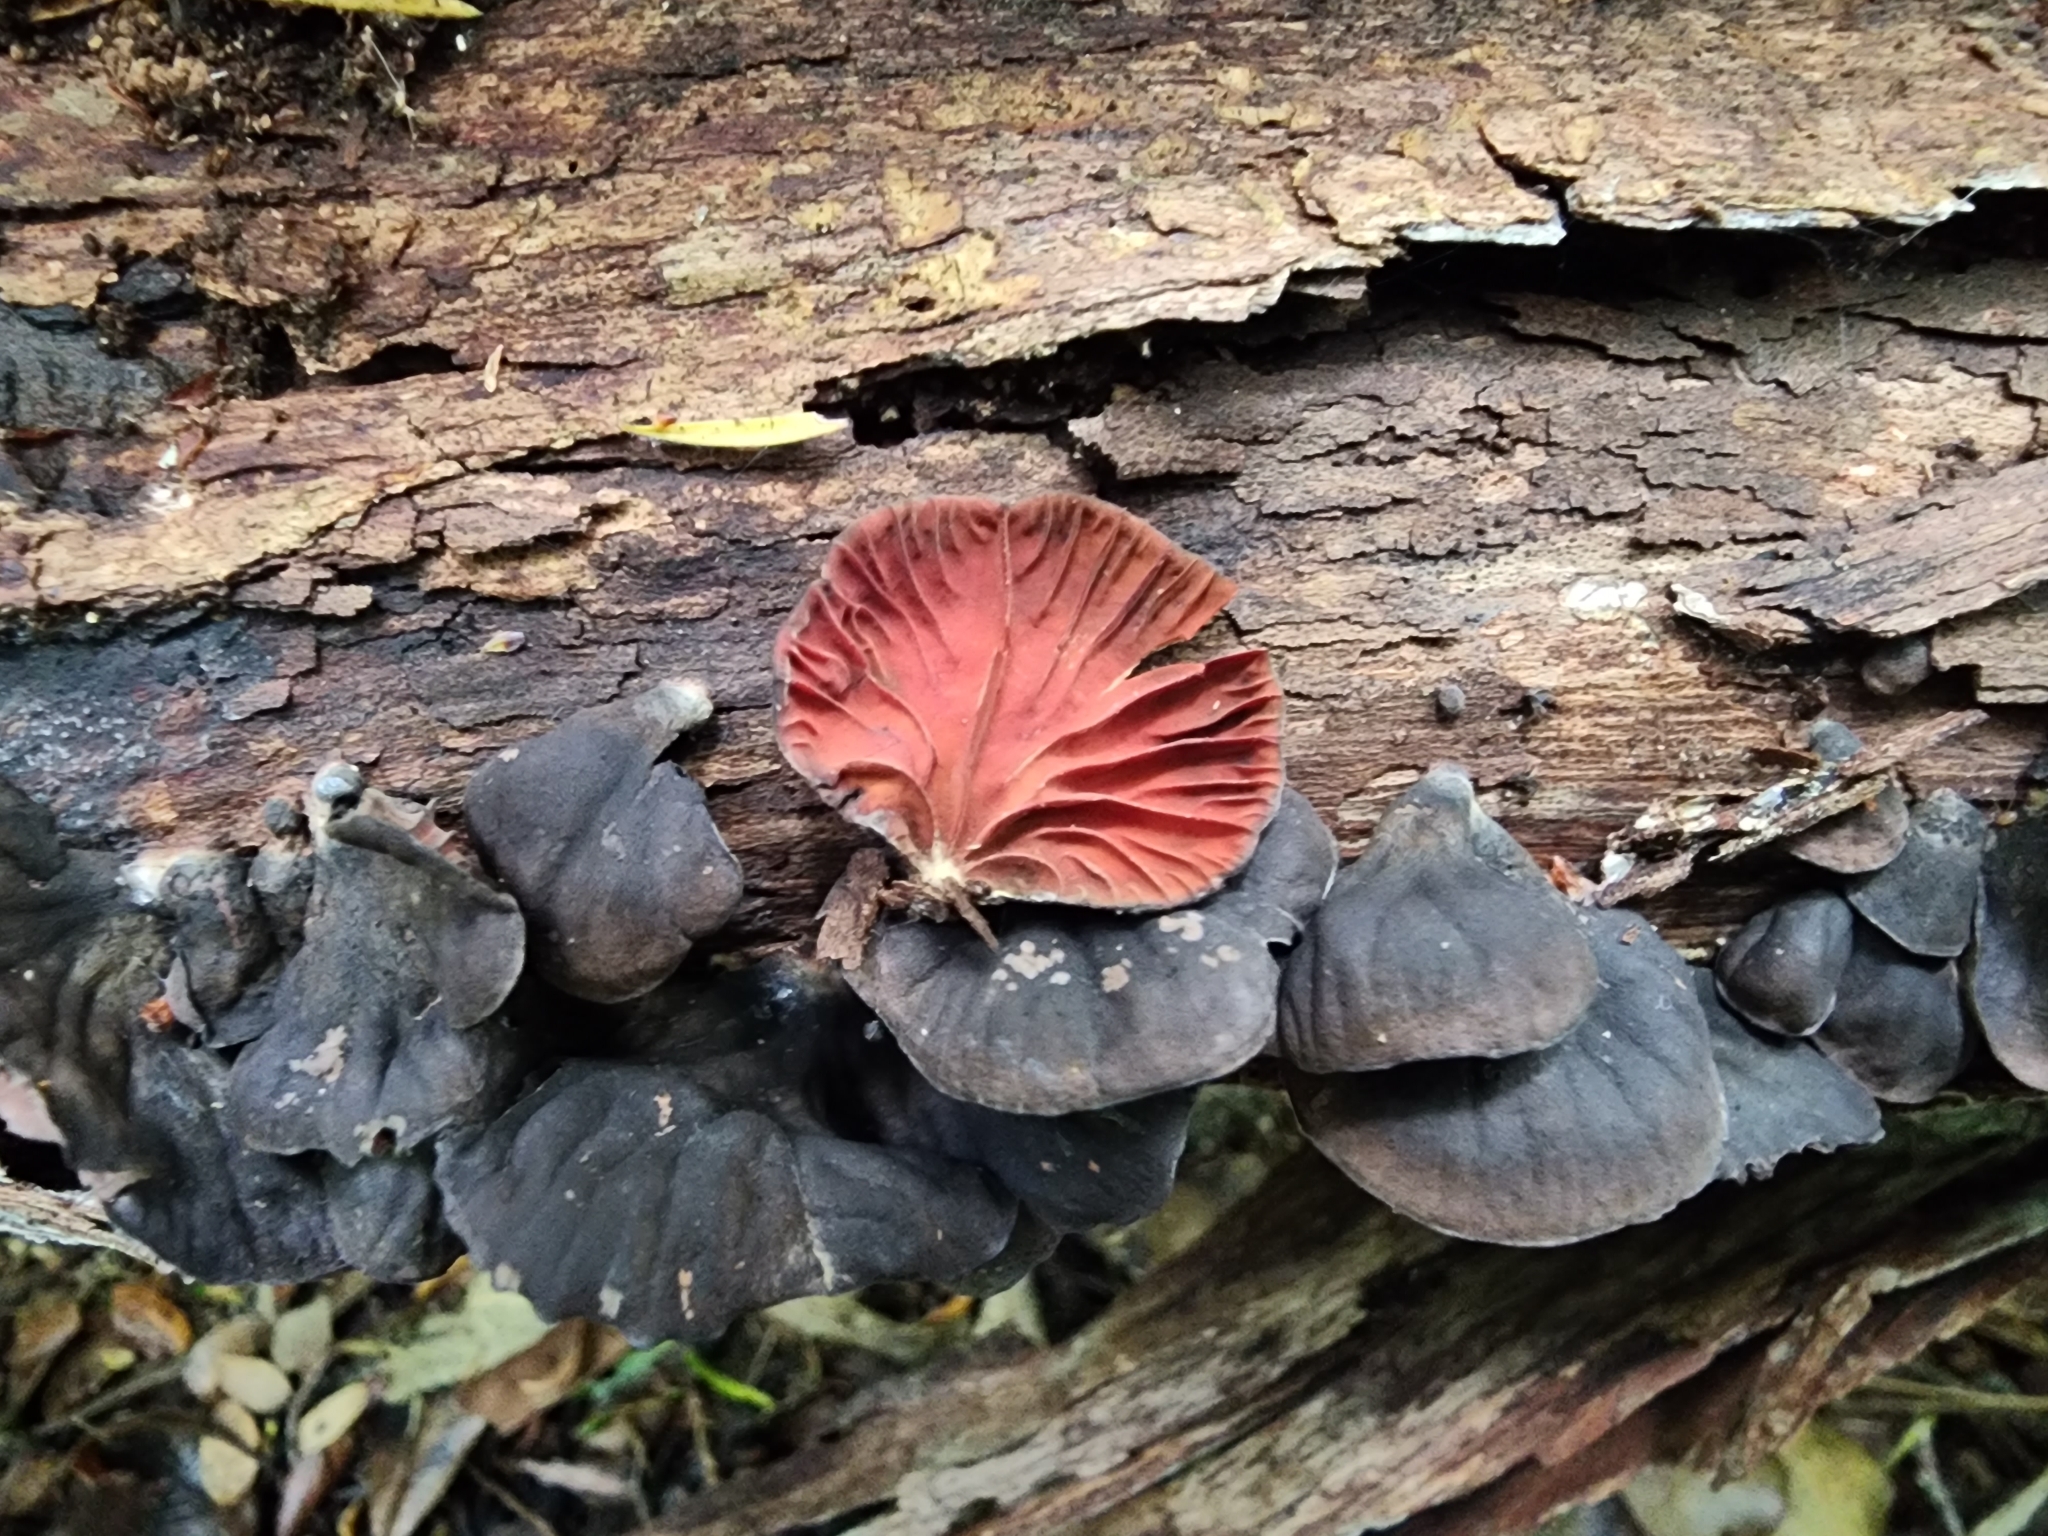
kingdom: Fungi
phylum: Basidiomycota
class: Agaricomycetes
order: Agaricales
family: Omphalotaceae
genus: Anthracophyllum
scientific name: Anthracophyllum archeri
